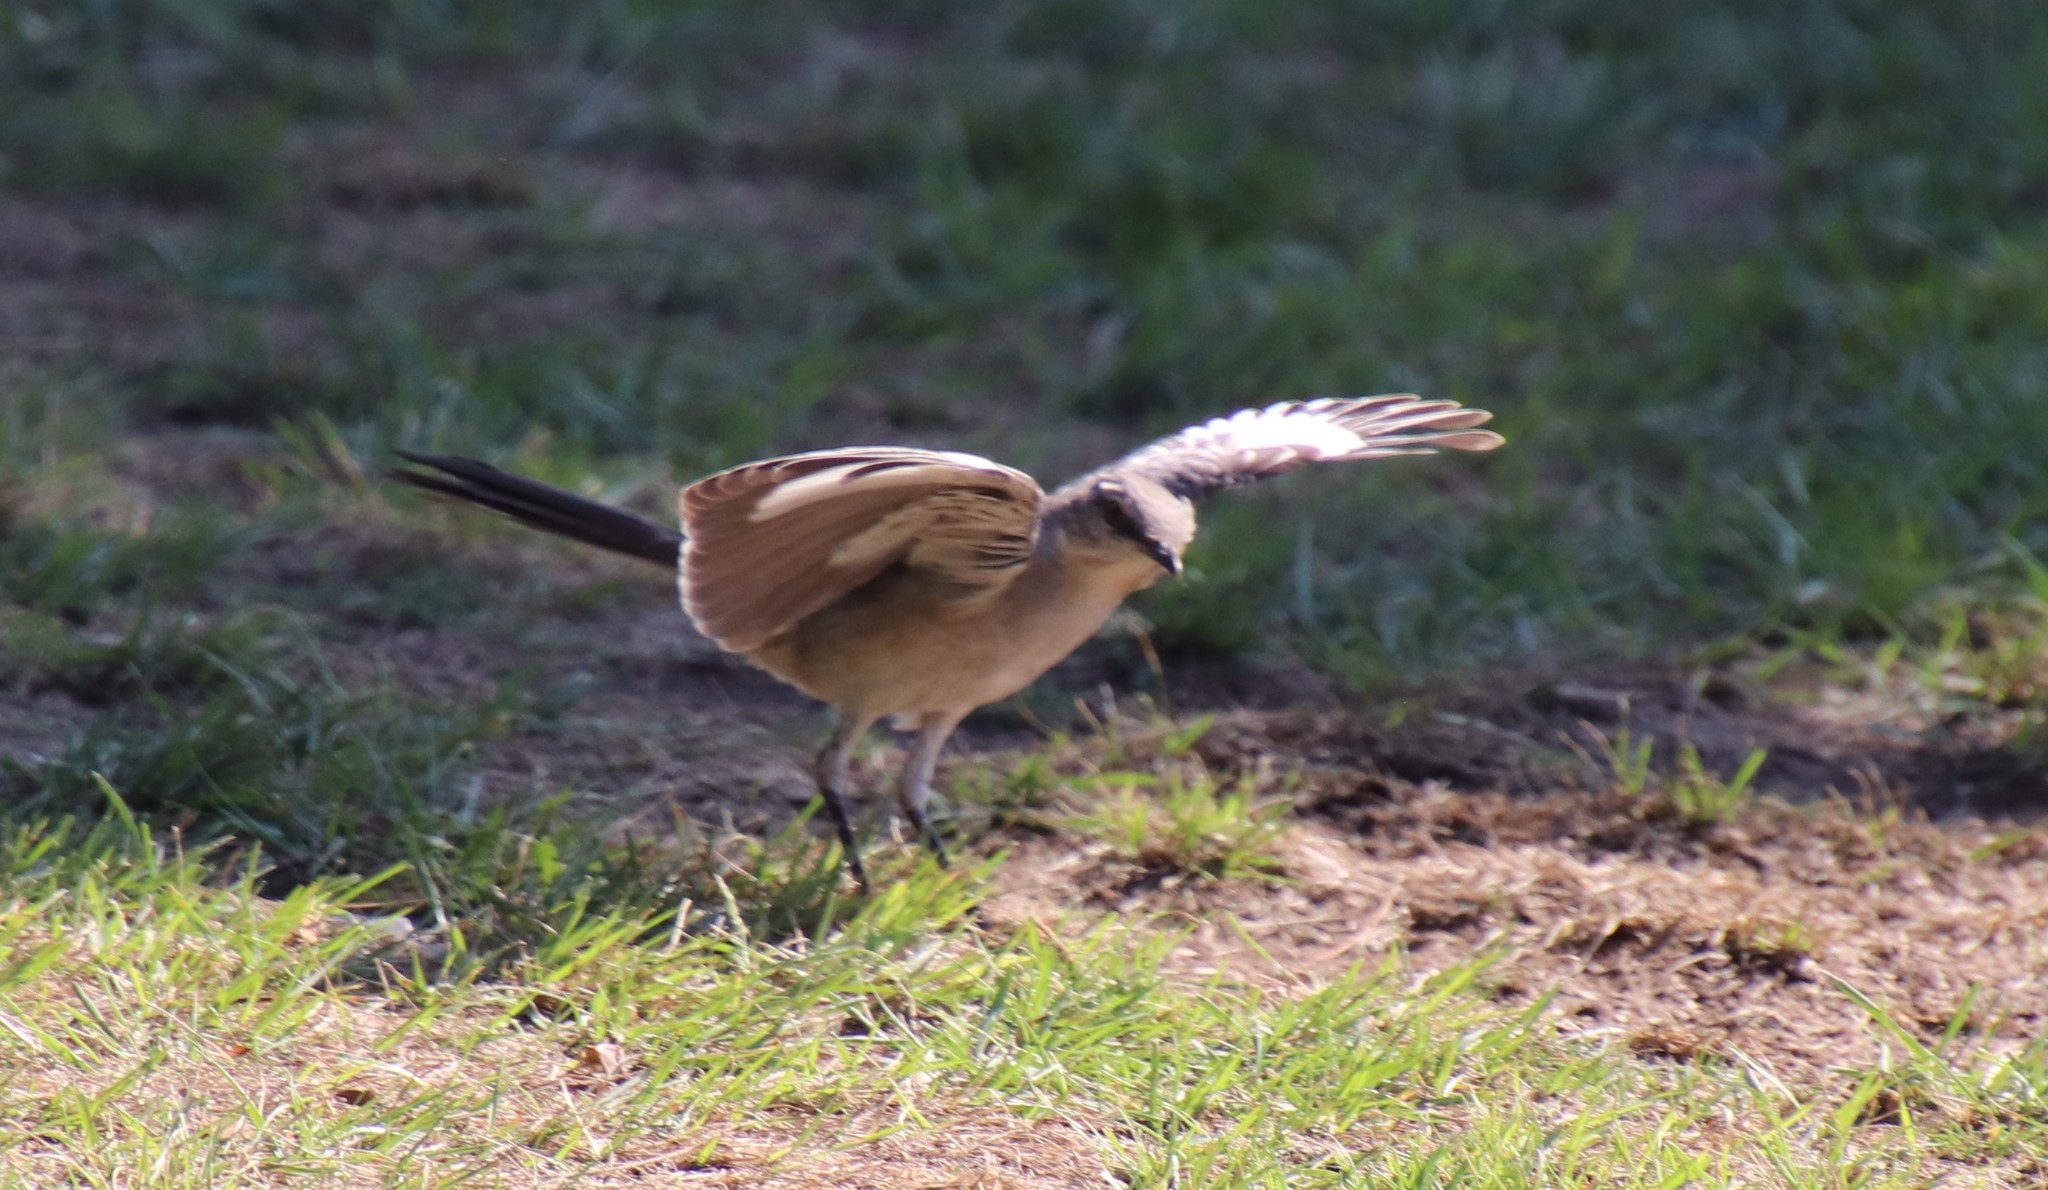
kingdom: Animalia
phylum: Chordata
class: Aves
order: Passeriformes
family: Mimidae
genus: Mimus
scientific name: Mimus polyglottos
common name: Northern mockingbird
